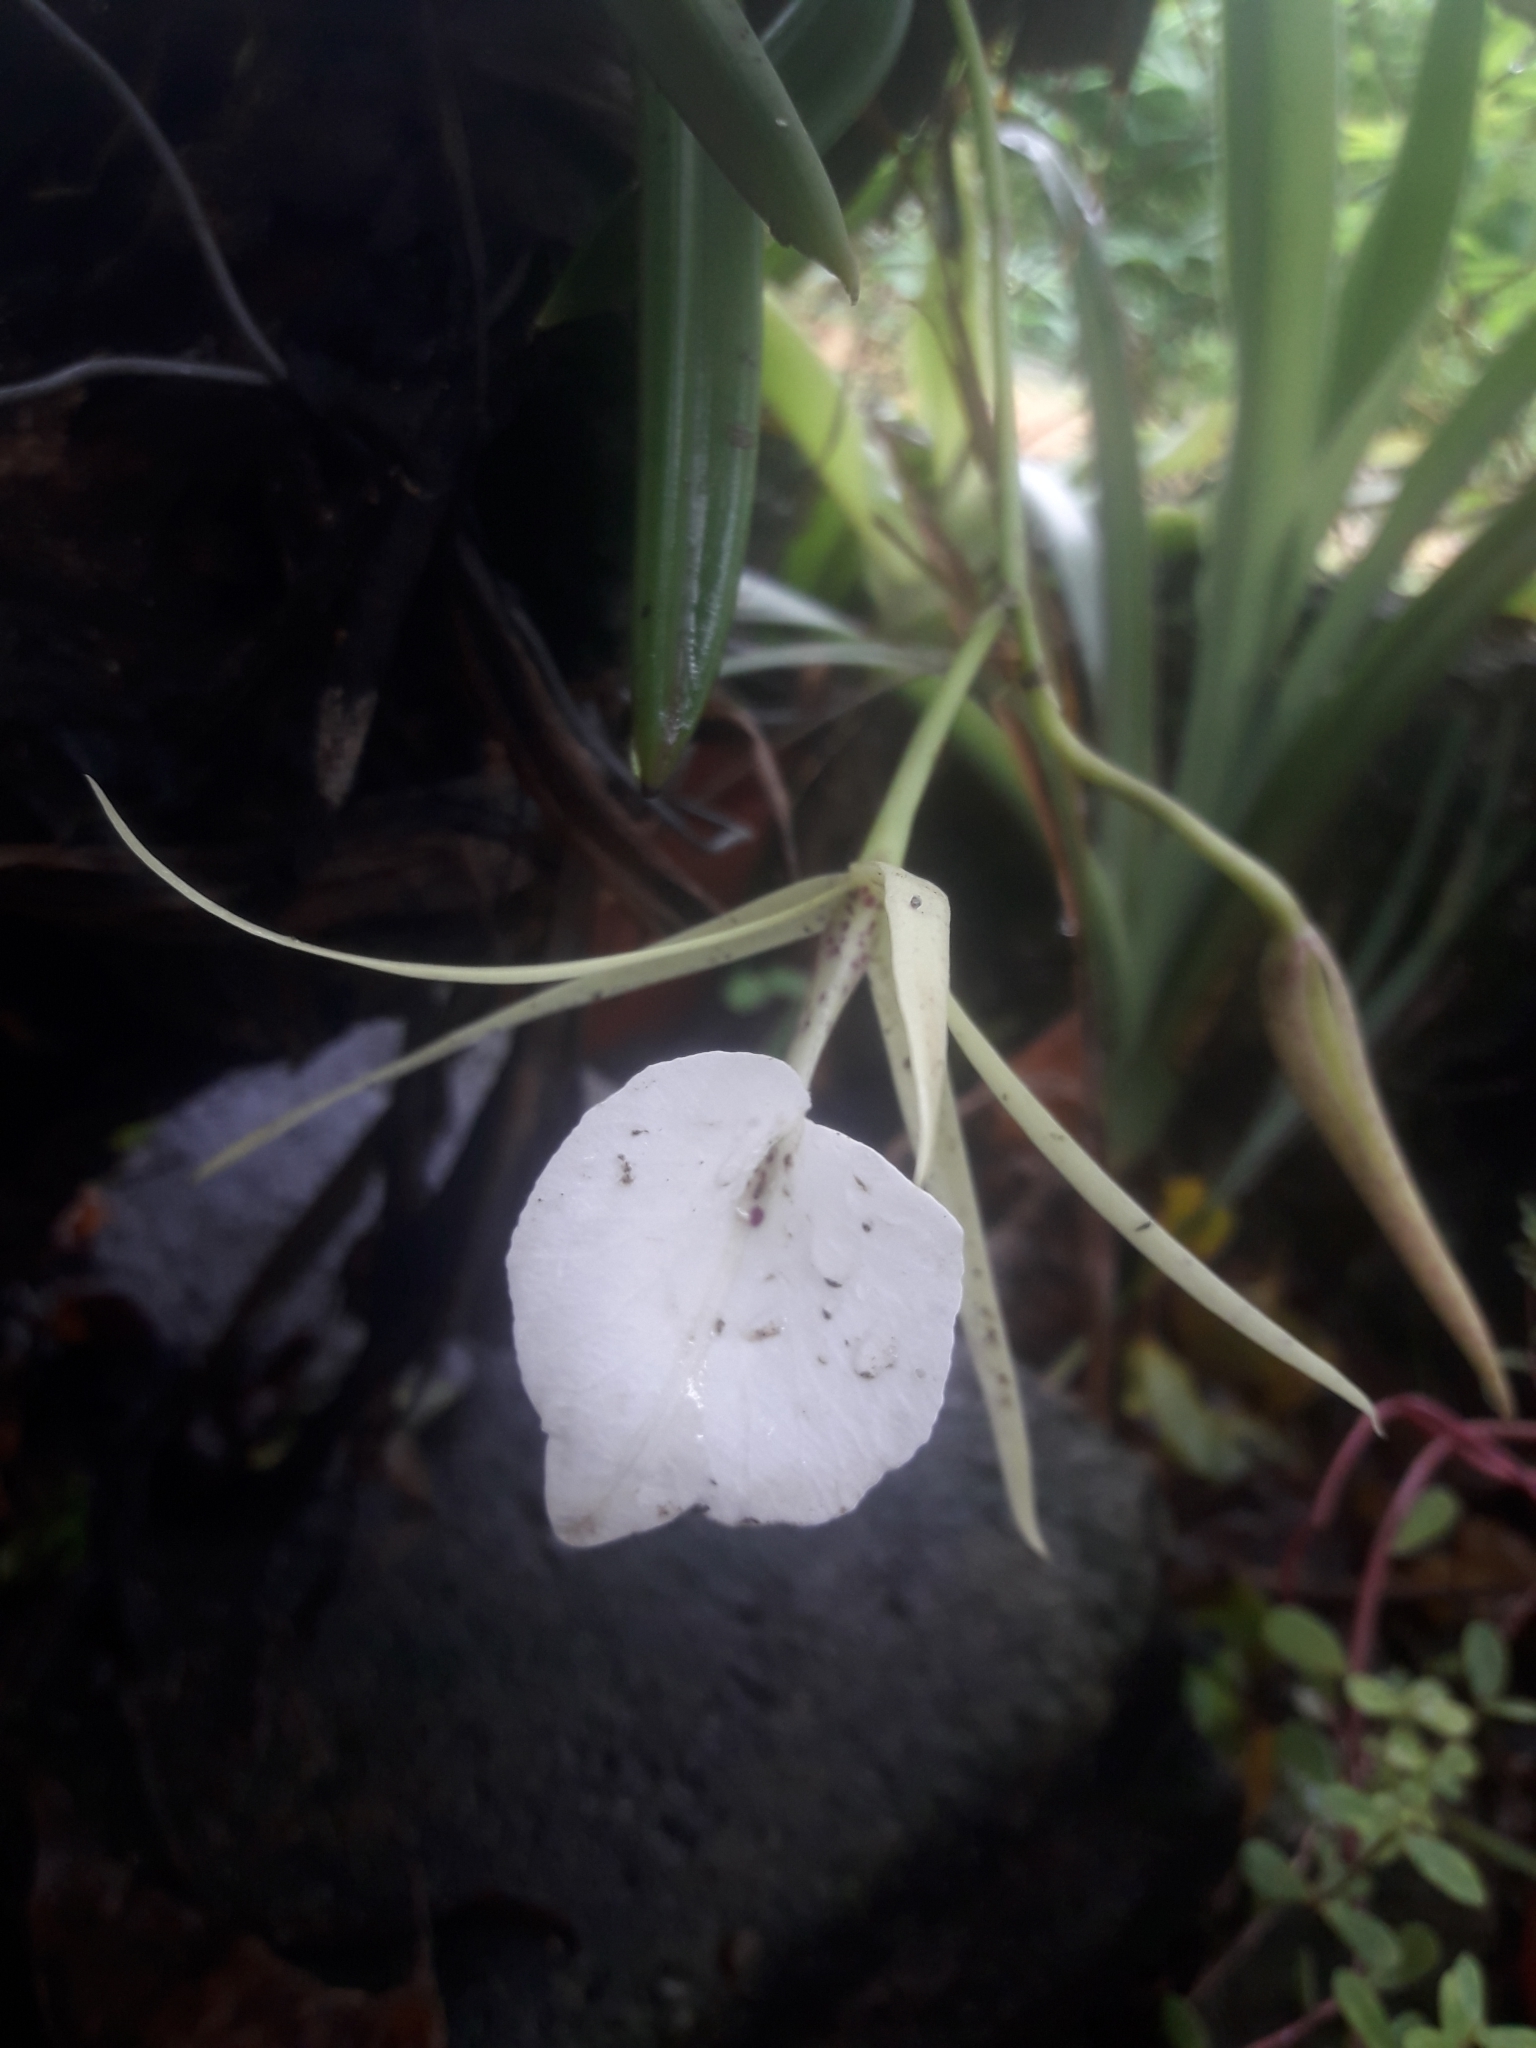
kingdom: Plantae
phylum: Tracheophyta
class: Liliopsida
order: Asparagales
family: Orchidaceae
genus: Brassavola
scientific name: Brassavola nodosa
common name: Lady of the night
